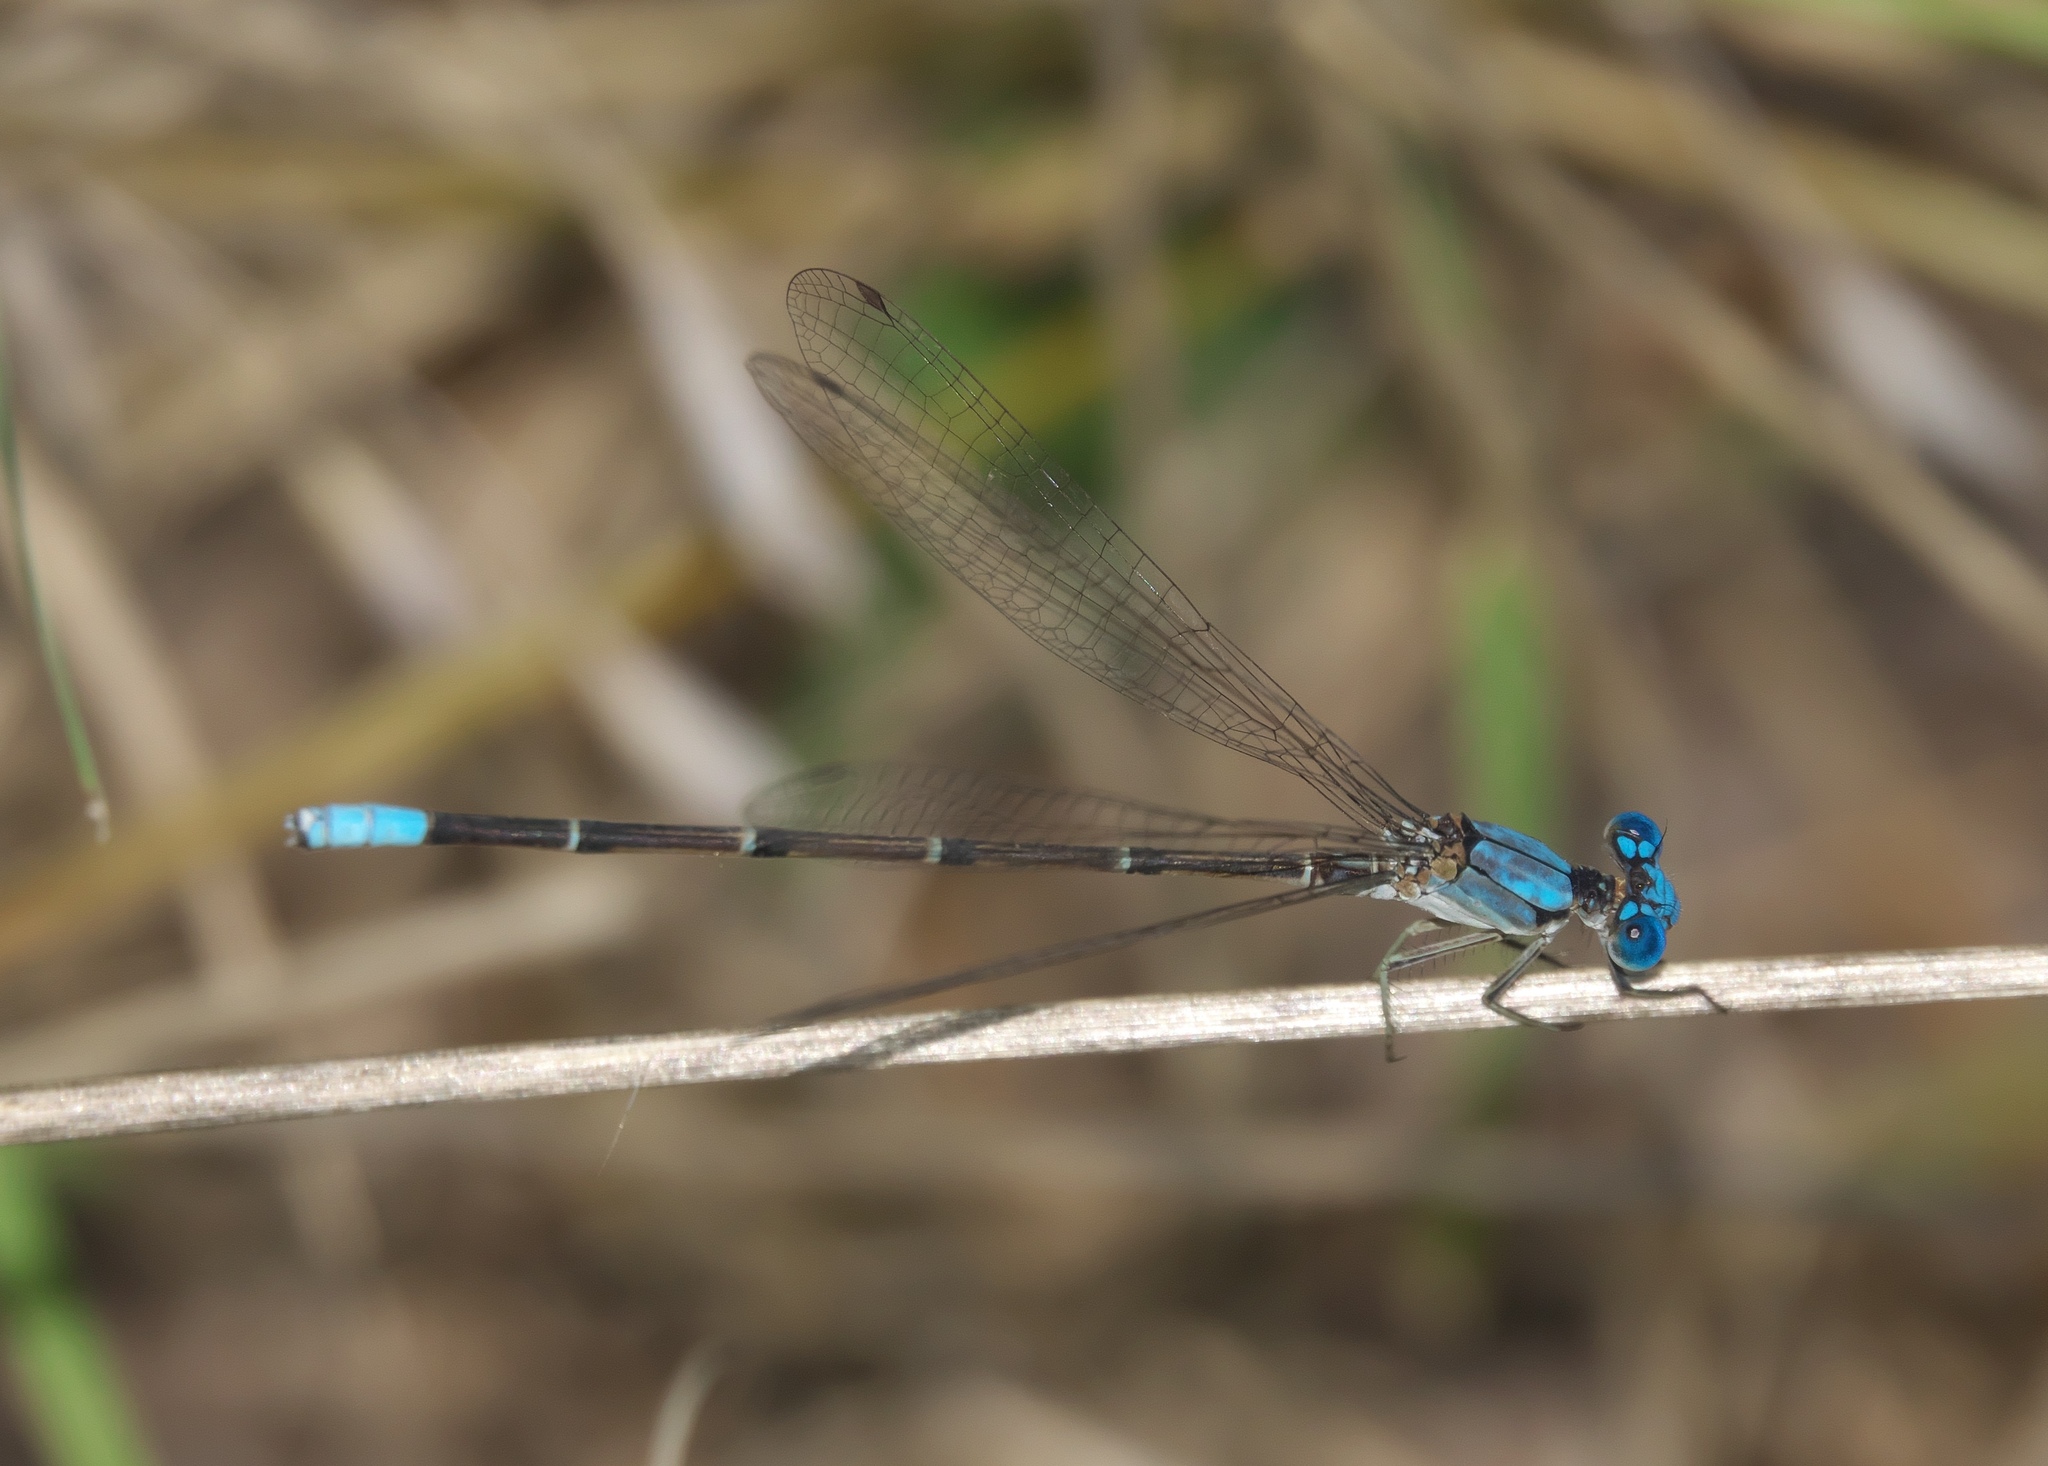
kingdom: Animalia
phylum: Arthropoda
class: Insecta
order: Odonata
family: Coenagrionidae
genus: Argia
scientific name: Argia apicalis
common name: Blue-fronted dancer
